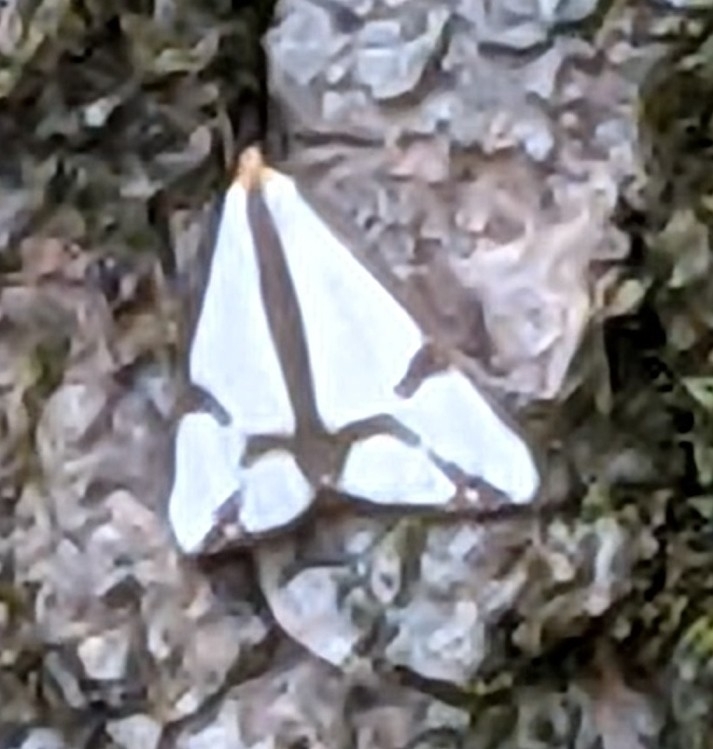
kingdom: Animalia
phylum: Arthropoda
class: Insecta
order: Lepidoptera
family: Erebidae
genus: Haploa
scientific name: Haploa contigua
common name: Neighbor moth
